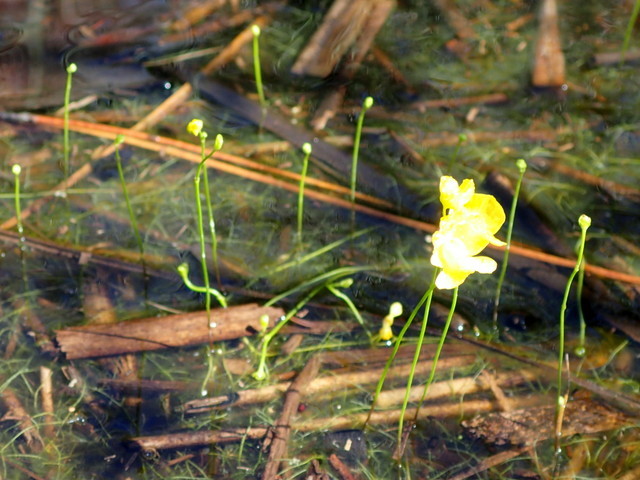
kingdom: Plantae
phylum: Tracheophyta
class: Magnoliopsida
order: Lamiales
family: Lentibulariaceae
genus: Utricularia
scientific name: Utricularia gibba
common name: Humped bladderwort
